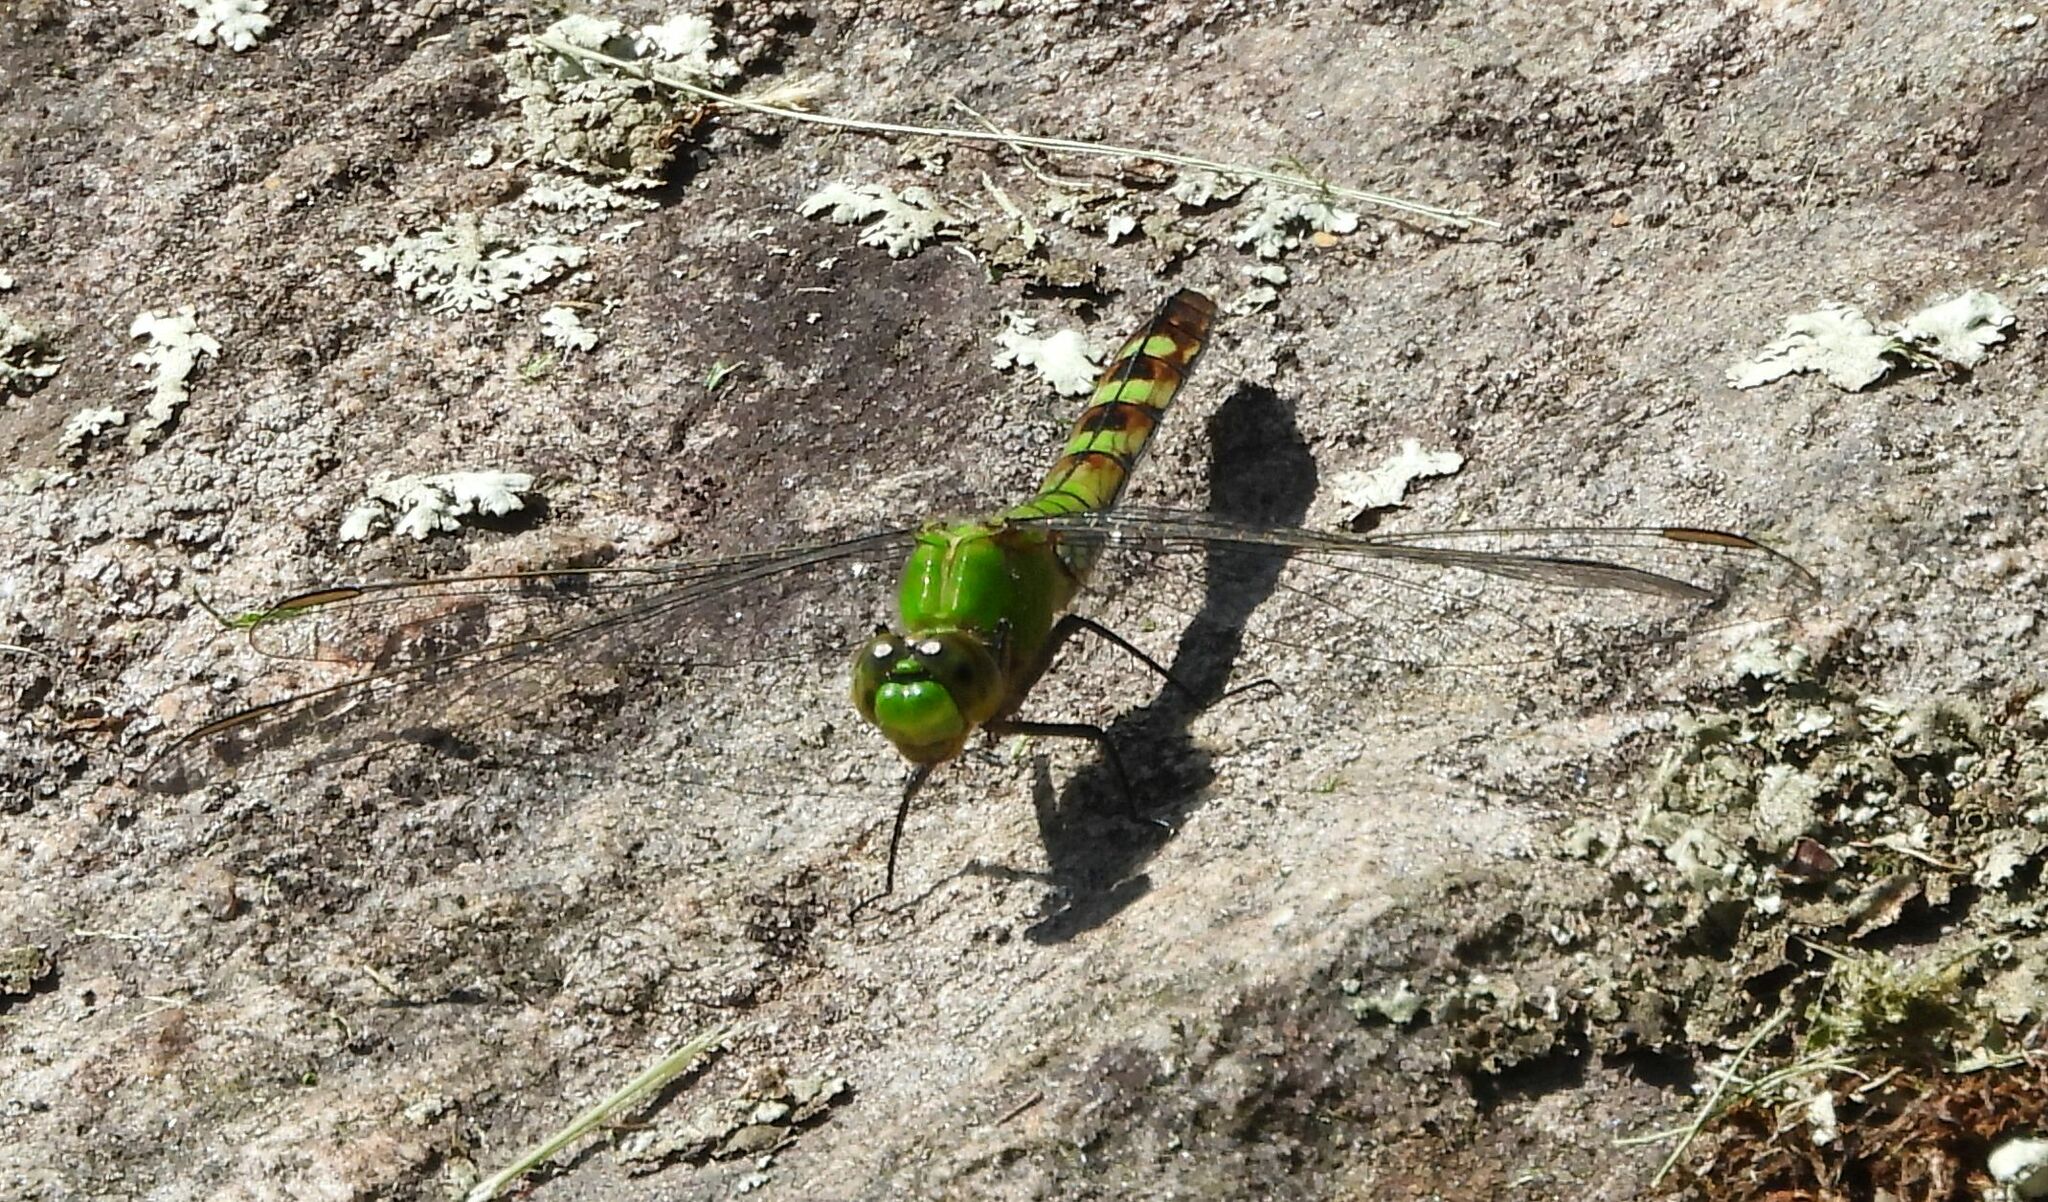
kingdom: Animalia
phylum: Arthropoda
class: Insecta
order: Odonata
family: Libellulidae
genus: Erythemis
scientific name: Erythemis simplicicollis
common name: Eastern pondhawk
